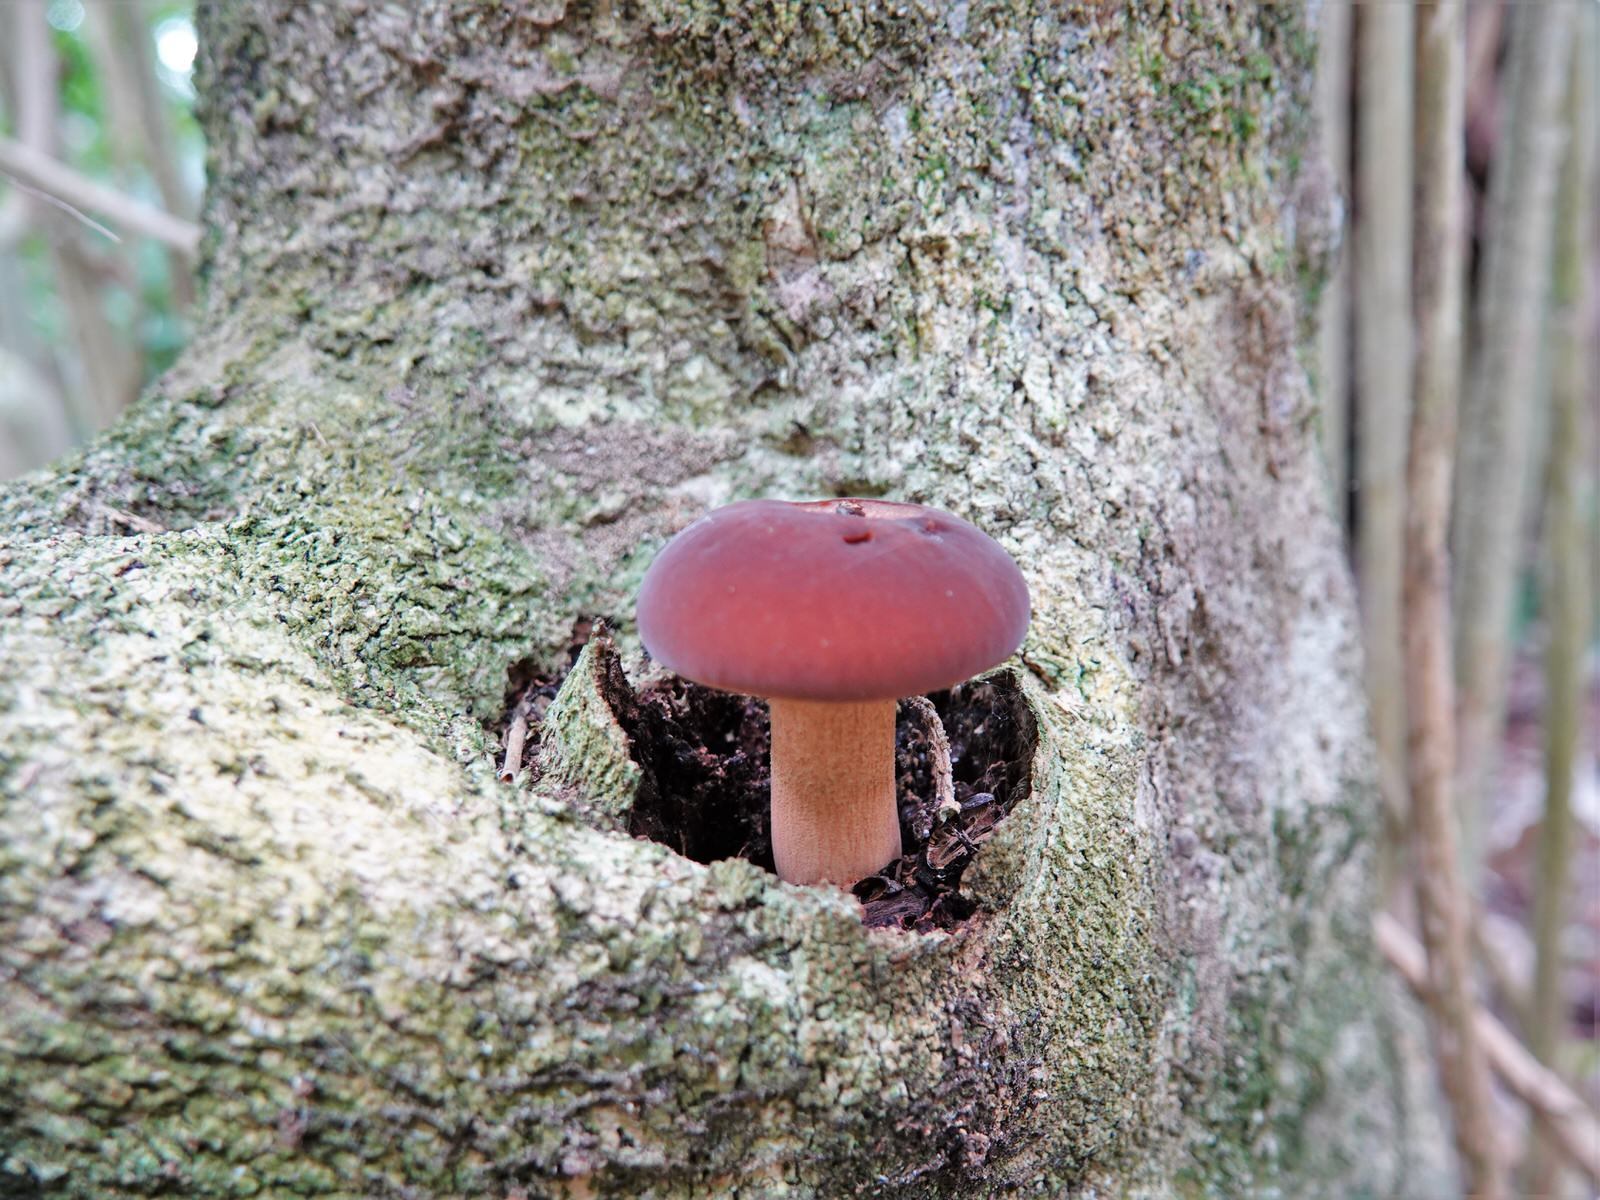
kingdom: Fungi
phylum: Basidiomycota
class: Agaricomycetes
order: Agaricales
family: Tubariaceae
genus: Cyclocybe
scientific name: Cyclocybe parasitica
